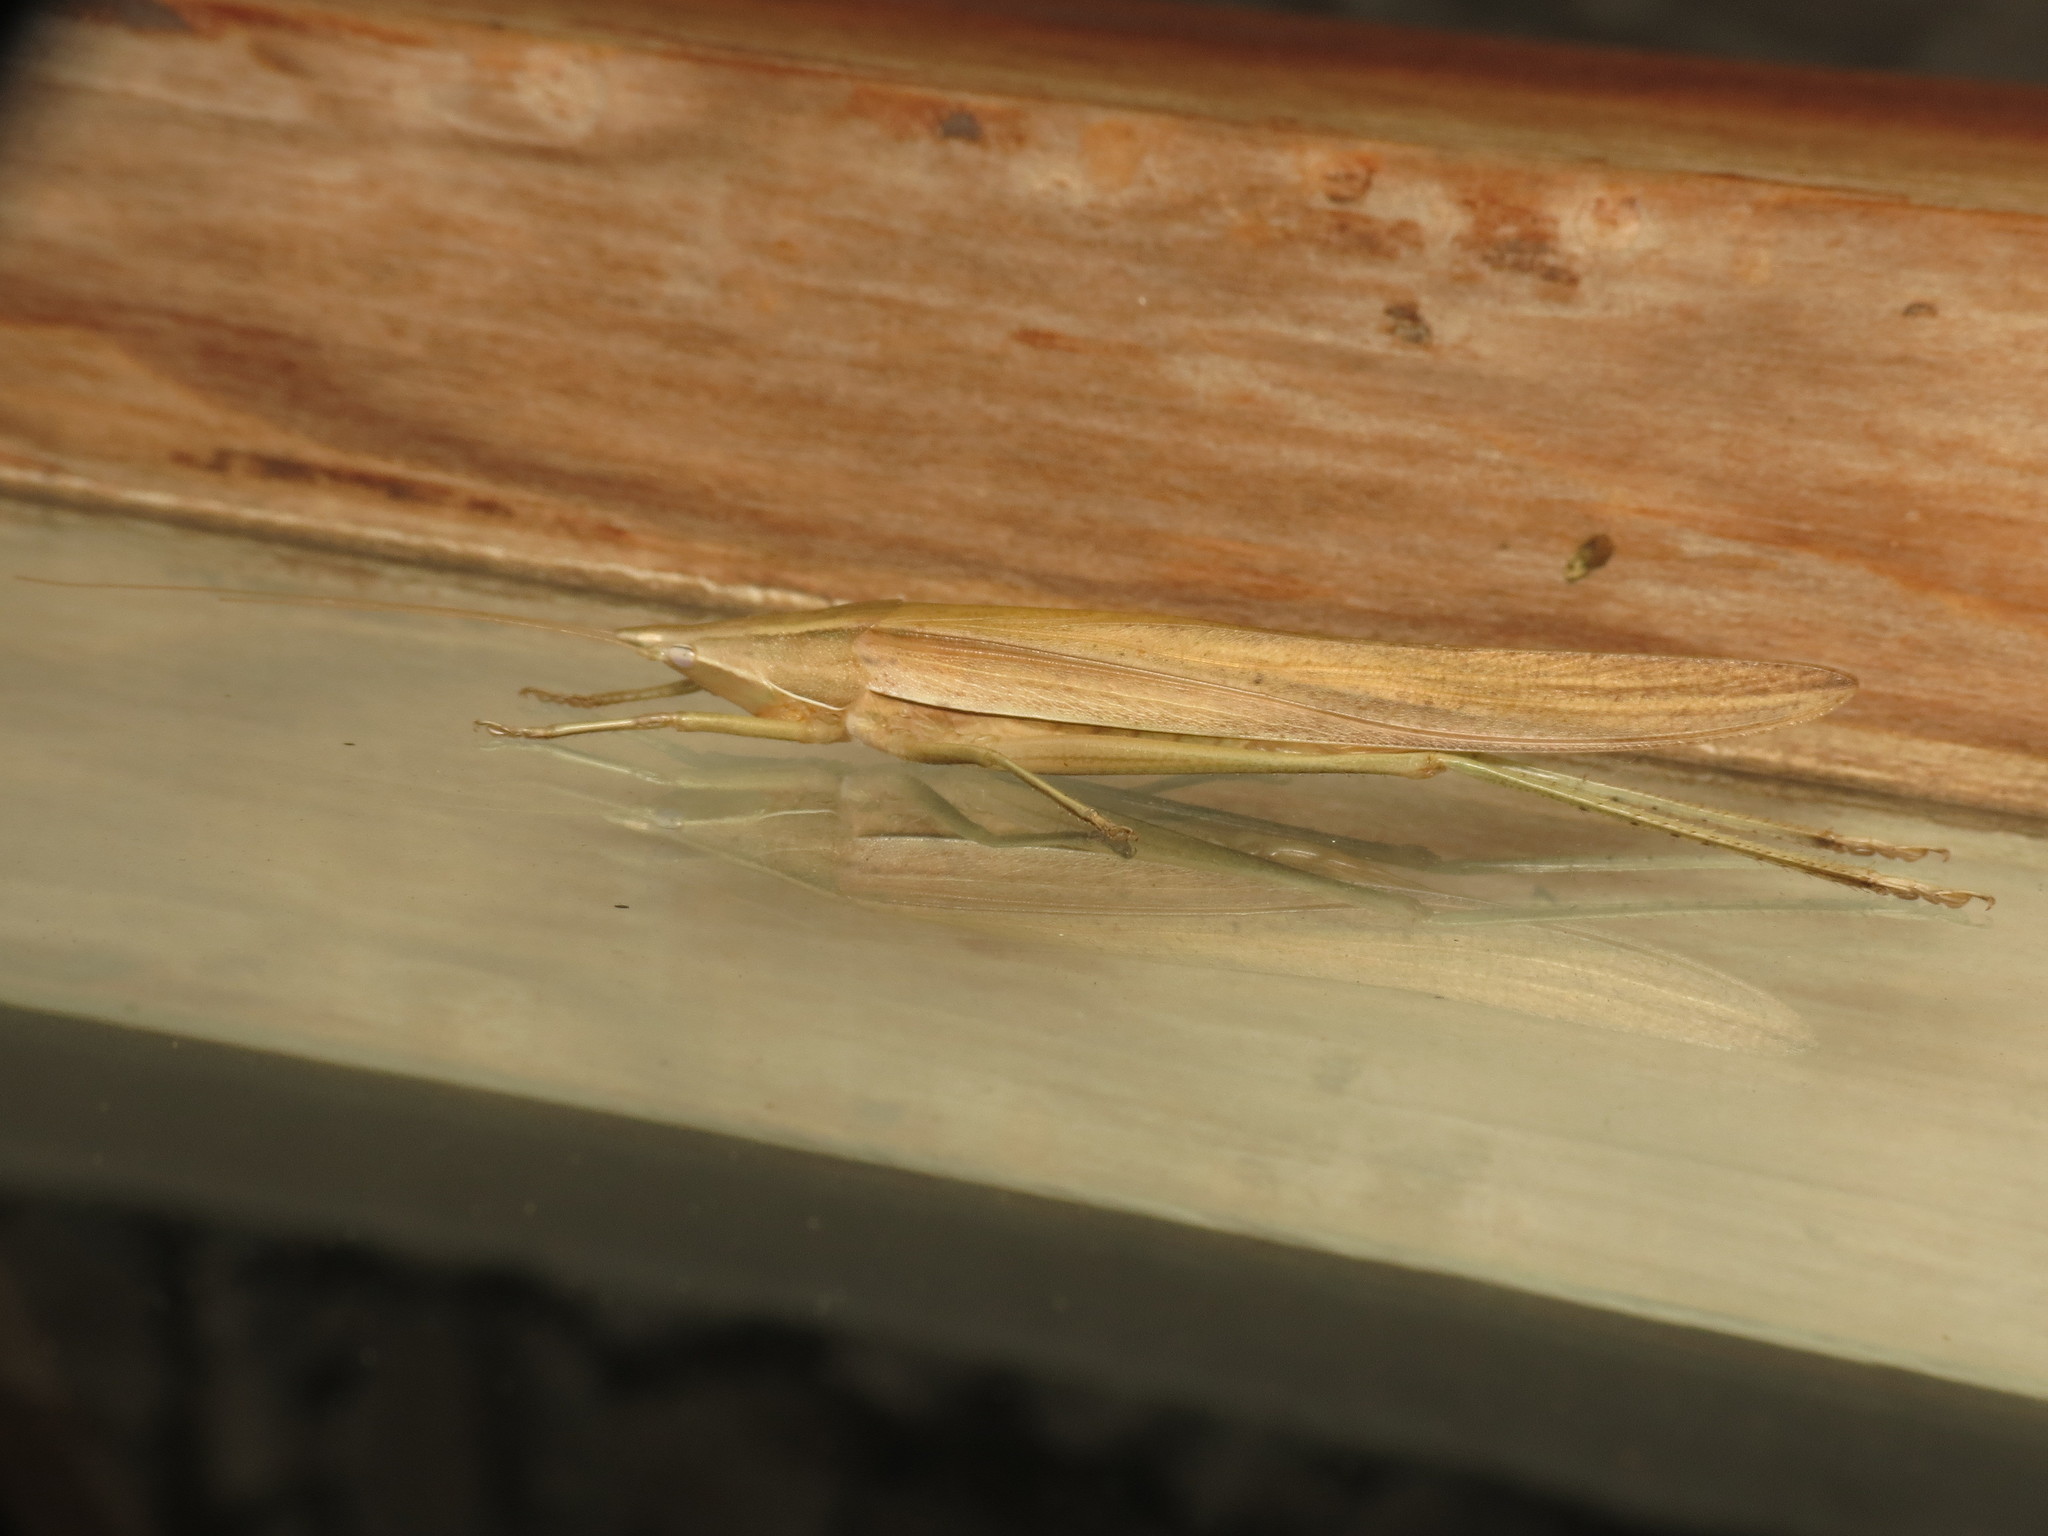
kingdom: Animalia
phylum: Arthropoda
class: Insecta
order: Orthoptera
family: Tettigoniidae
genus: Euconocephalus
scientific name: Euconocephalus nasutus
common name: Grasshopper
